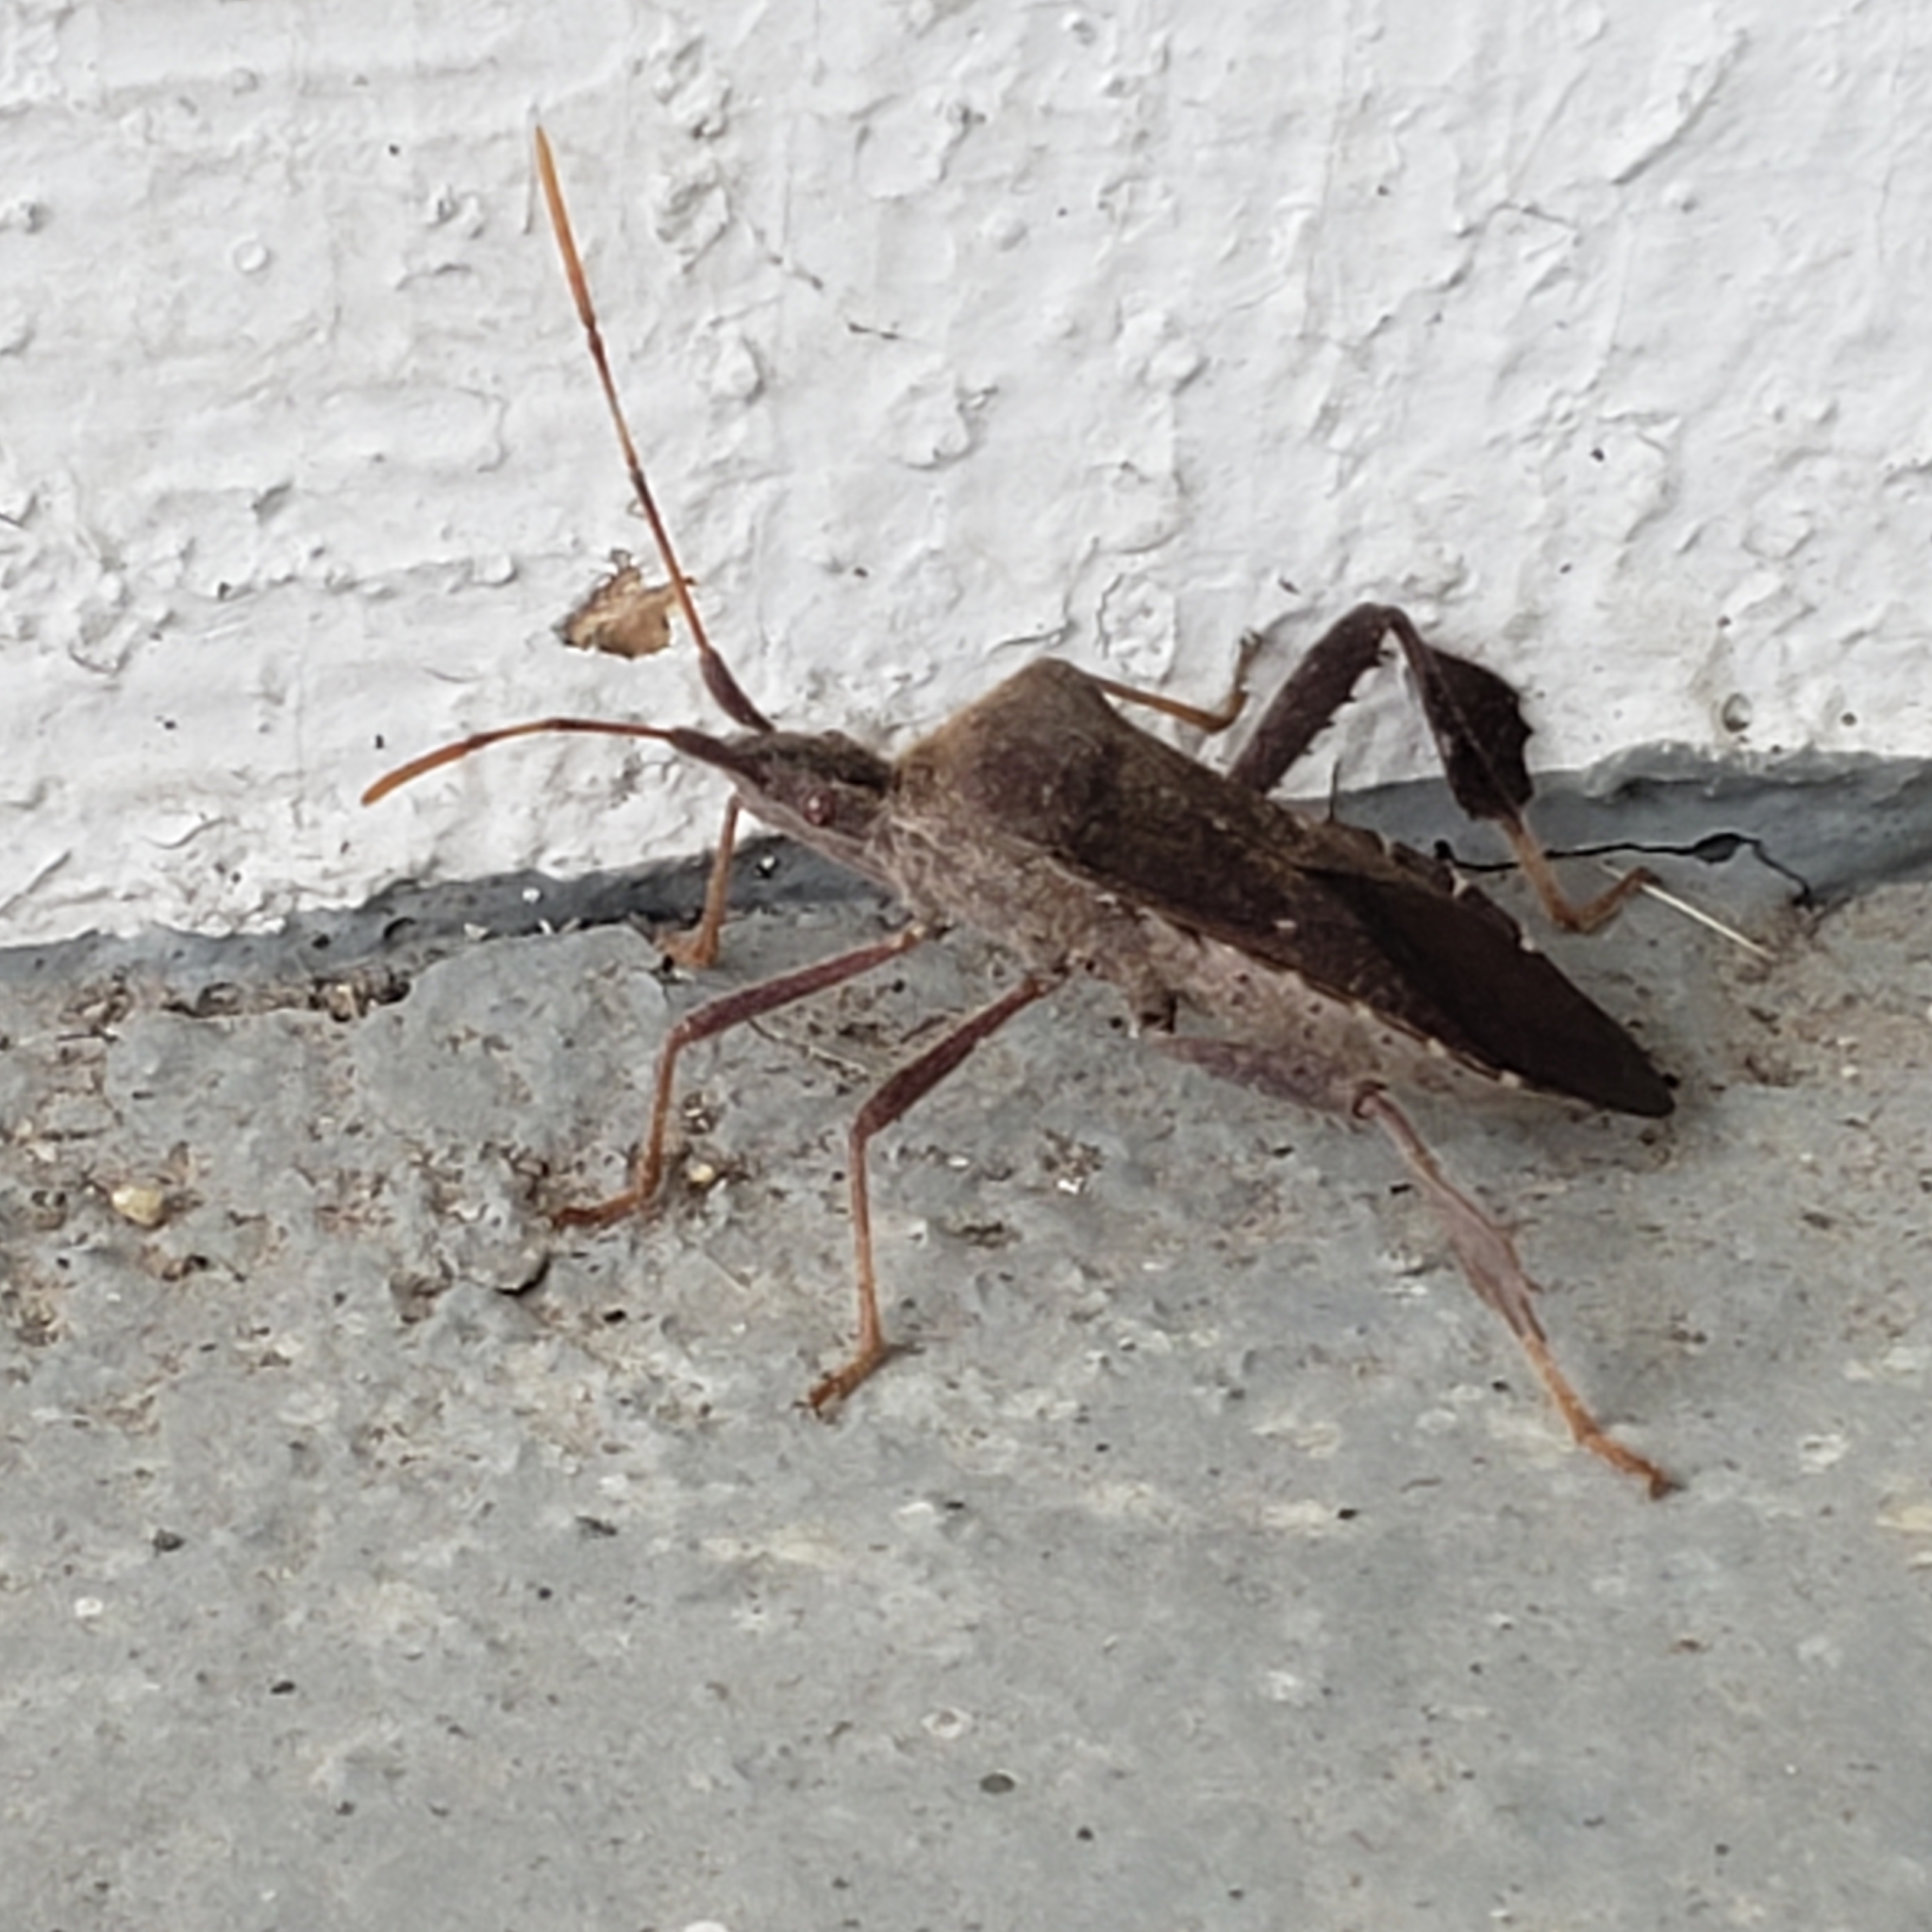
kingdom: Animalia
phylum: Arthropoda
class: Insecta
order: Hemiptera
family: Coreidae
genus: Leptoglossus
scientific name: Leptoglossus oppositus
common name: Northern leaf-footed bug
